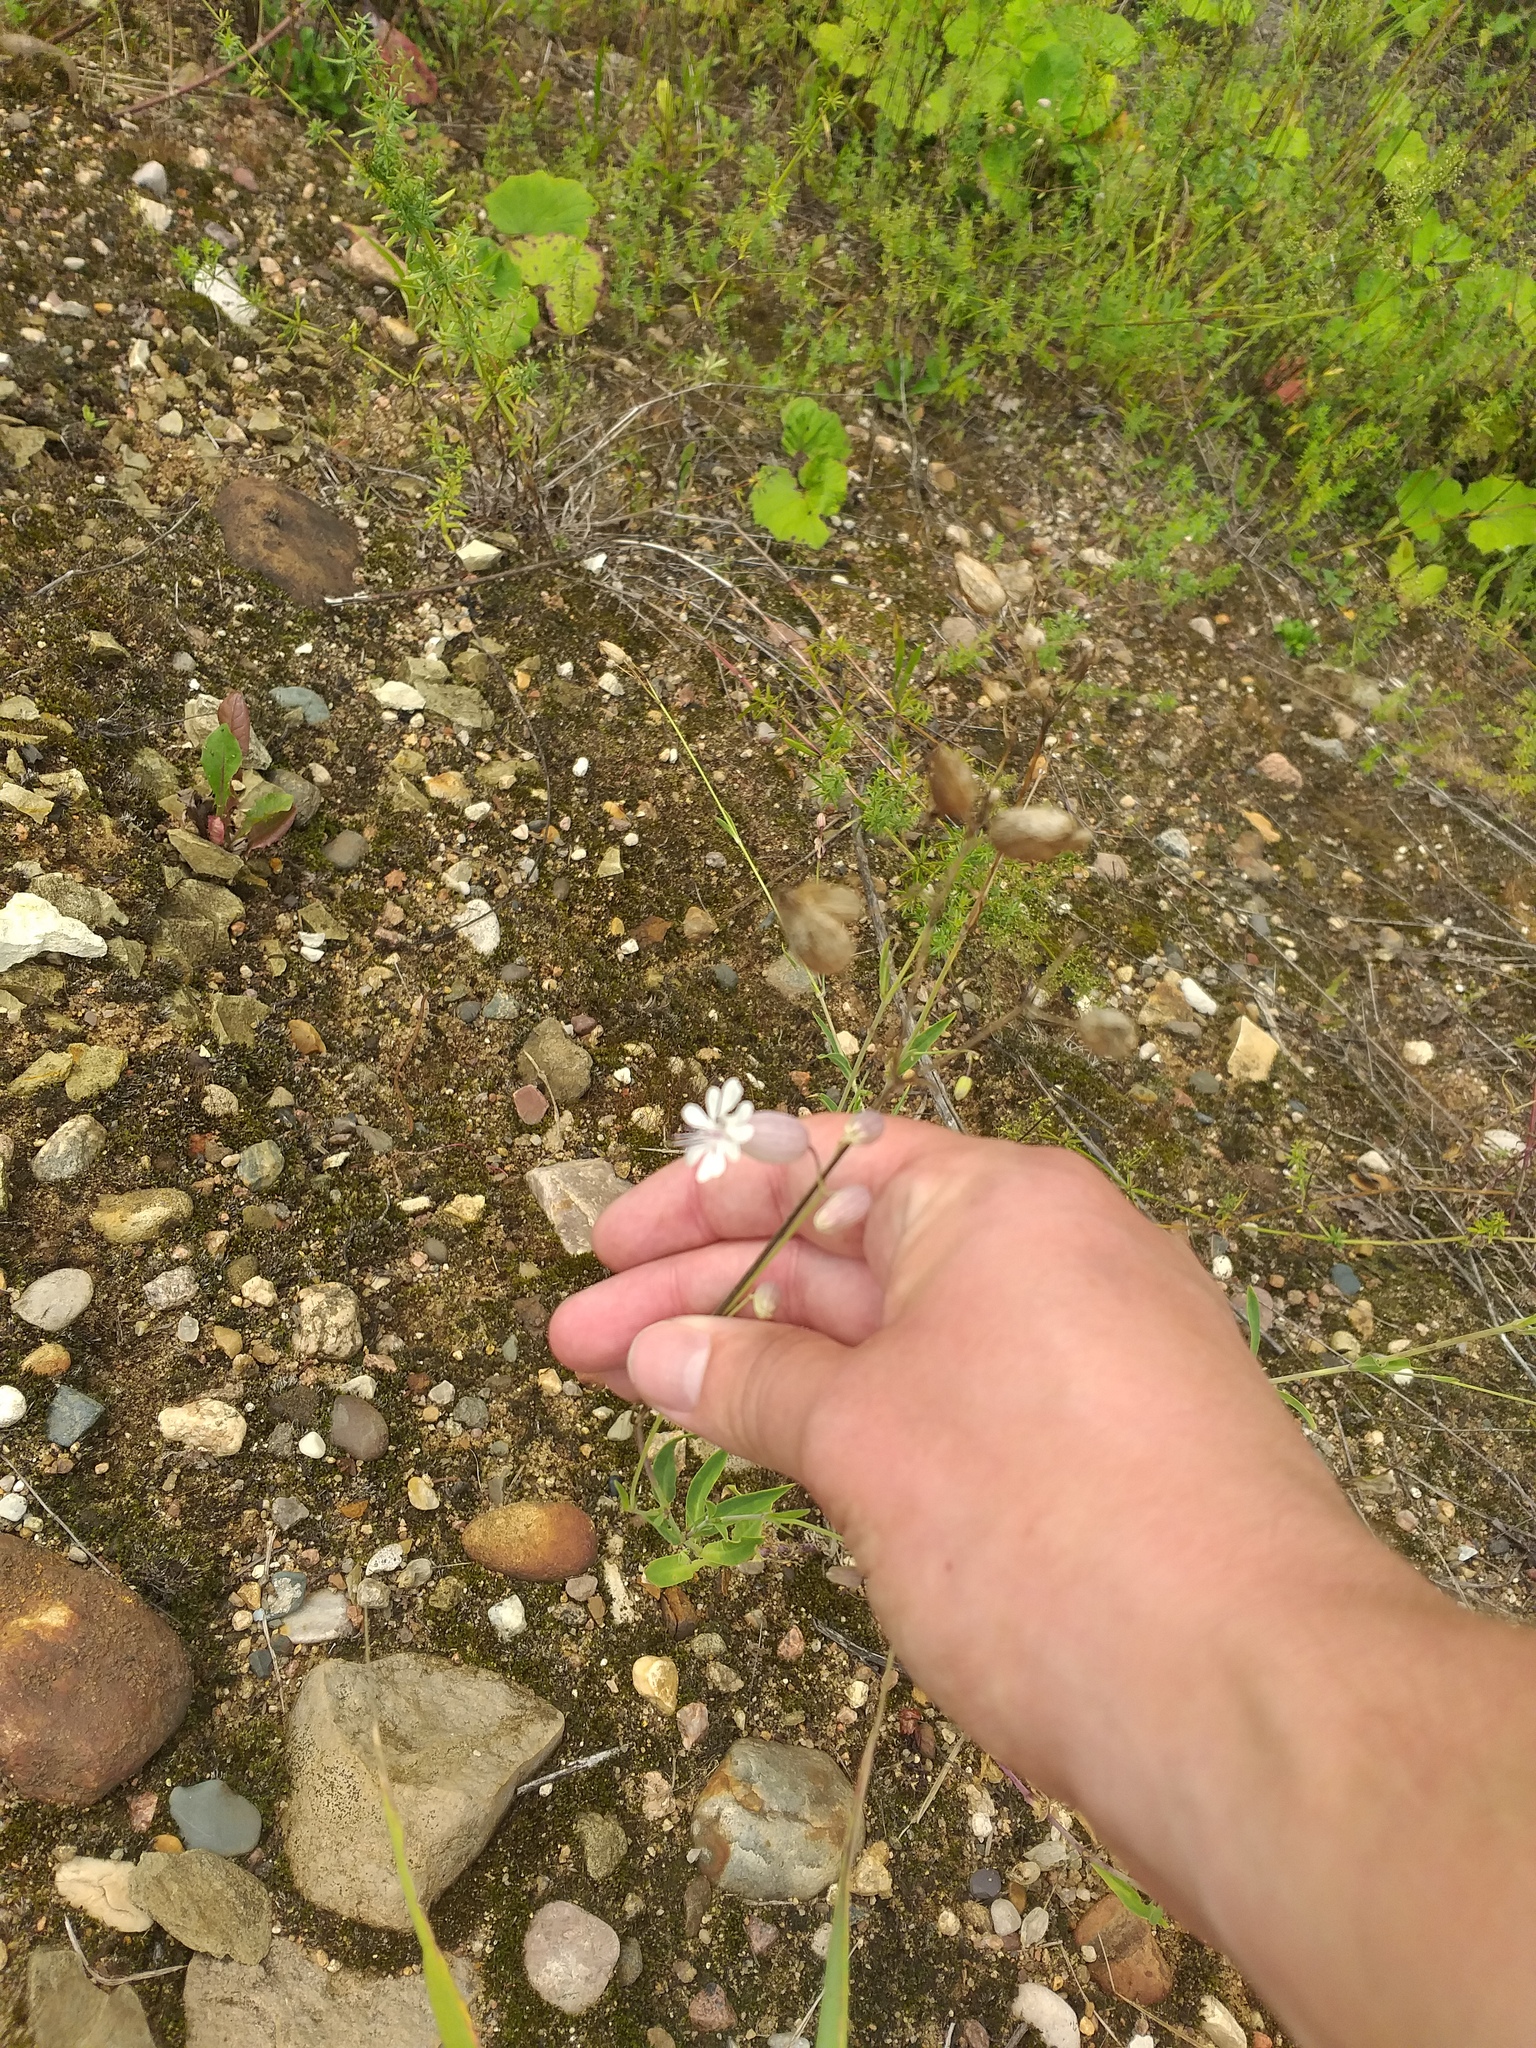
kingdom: Plantae
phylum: Tracheophyta
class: Magnoliopsida
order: Caryophyllales
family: Caryophyllaceae
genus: Silene
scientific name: Silene vulgaris
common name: Bladder campion
